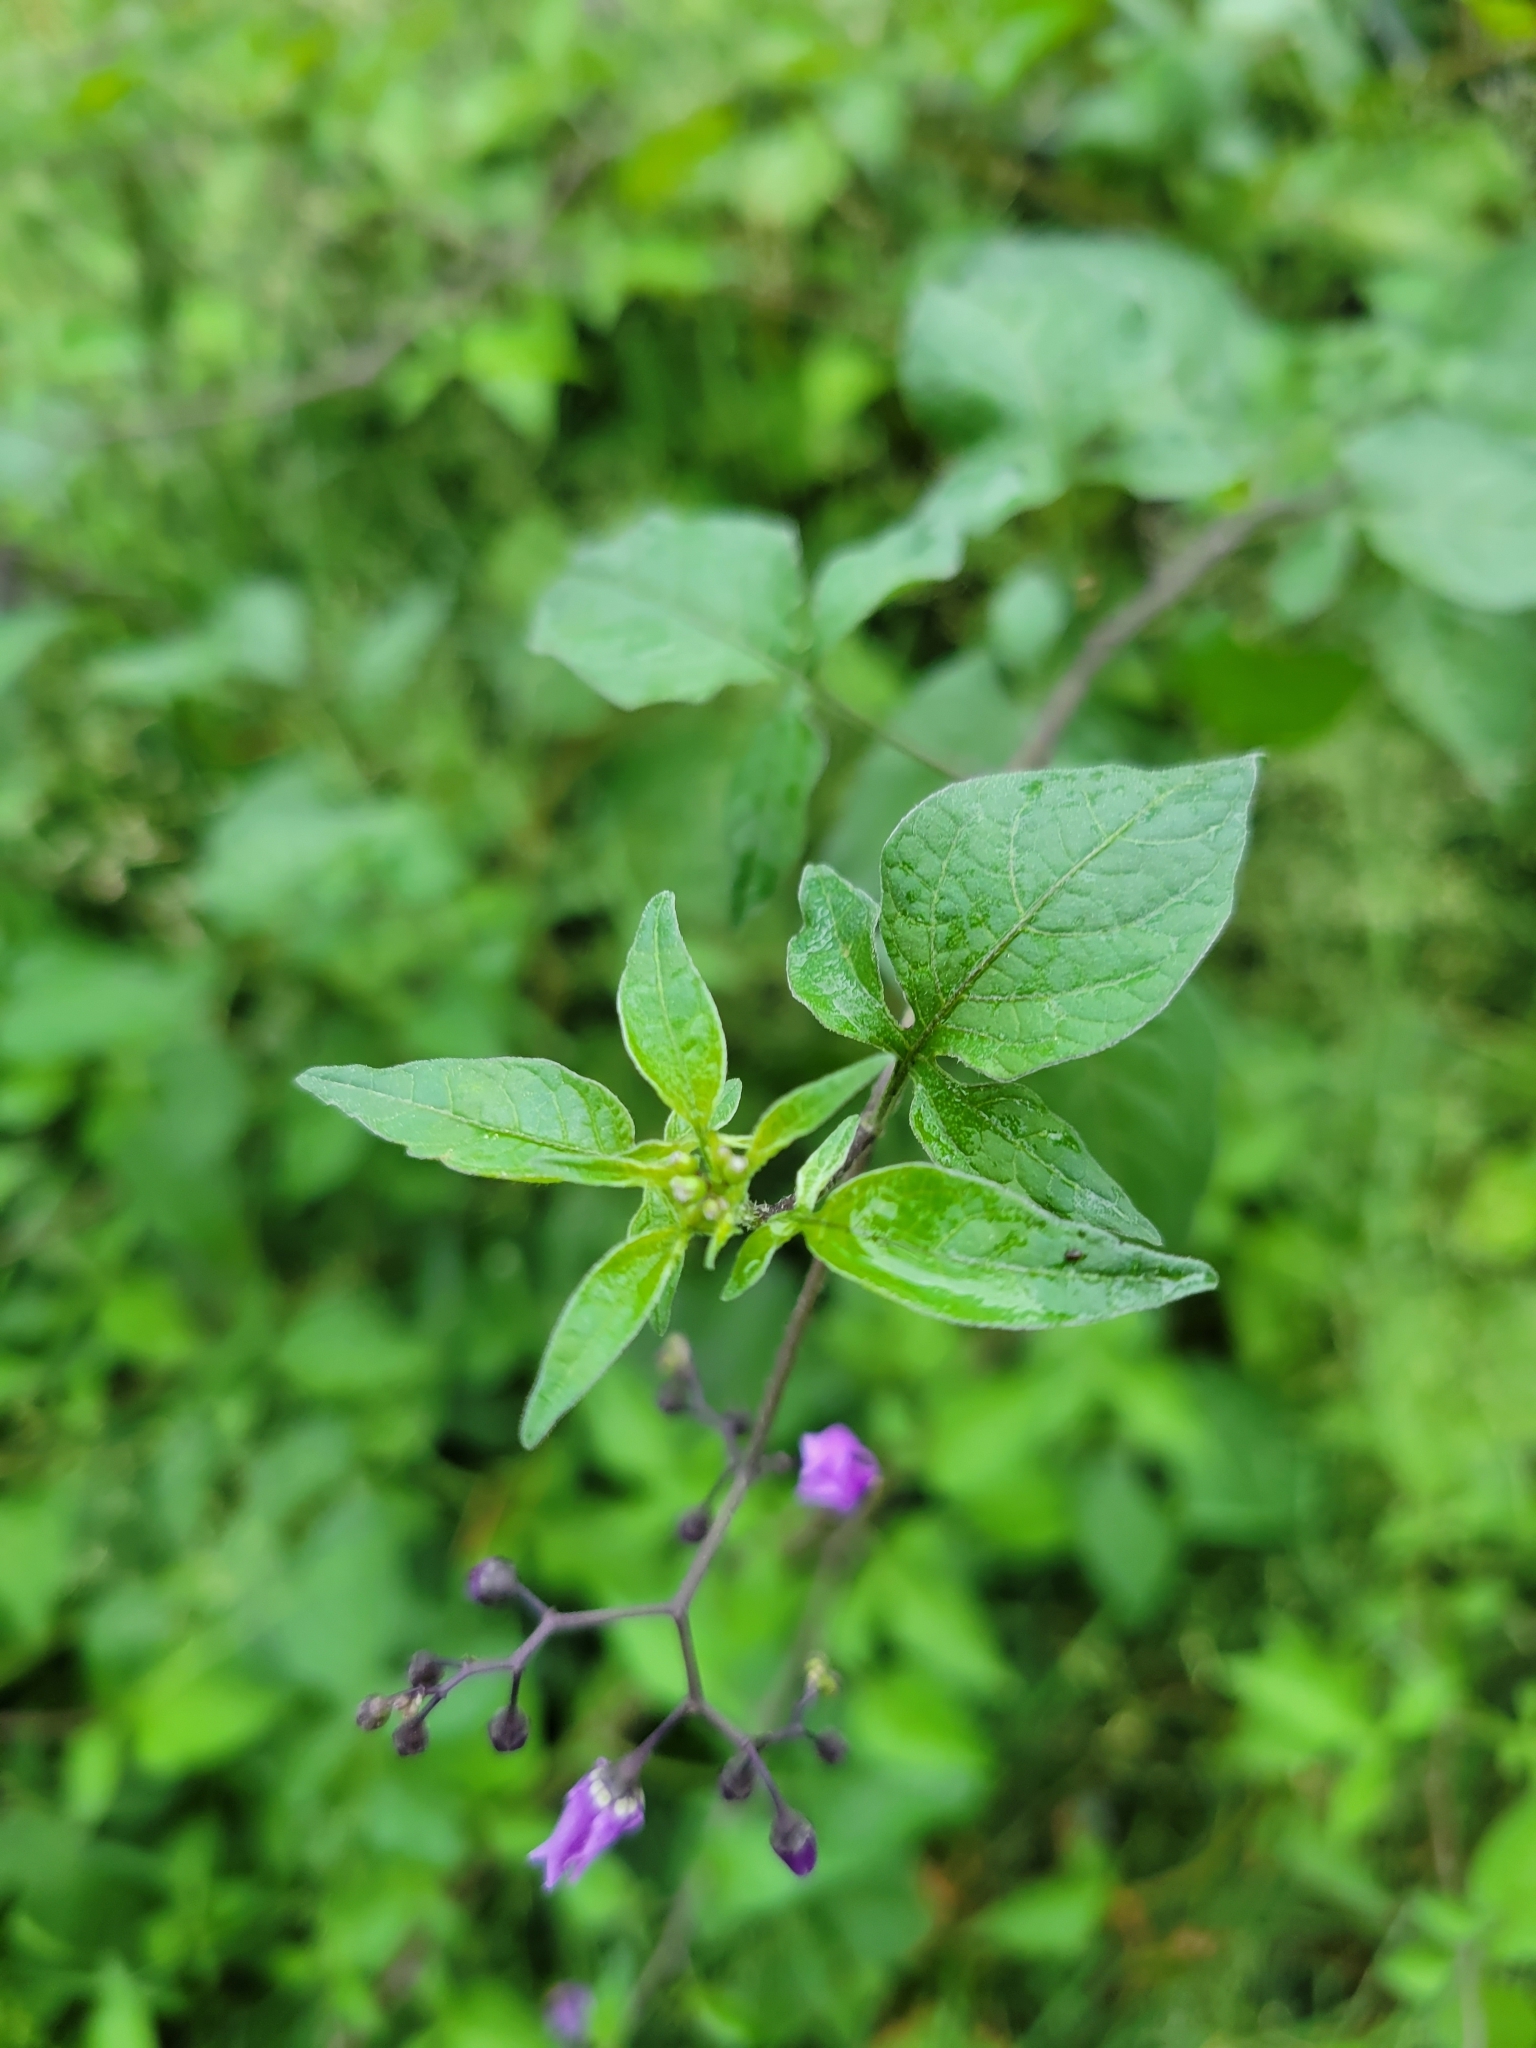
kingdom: Plantae
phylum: Tracheophyta
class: Magnoliopsida
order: Solanales
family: Solanaceae
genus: Solanum
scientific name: Solanum dulcamara
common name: Climbing nightshade
